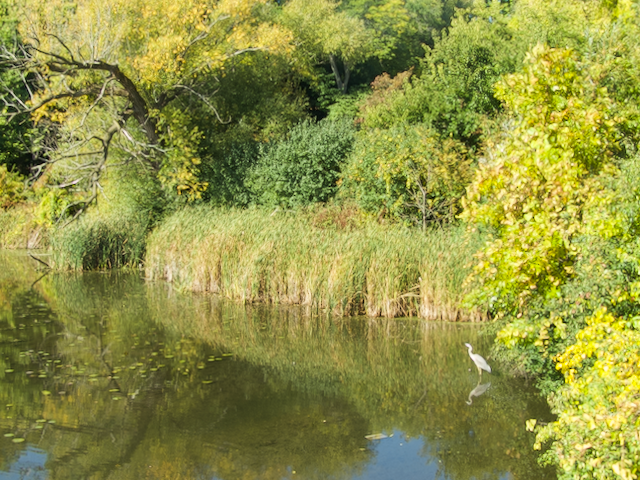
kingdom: Animalia
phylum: Chordata
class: Aves
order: Pelecaniformes
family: Ardeidae
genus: Ardea
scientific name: Ardea herodias
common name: Great blue heron
